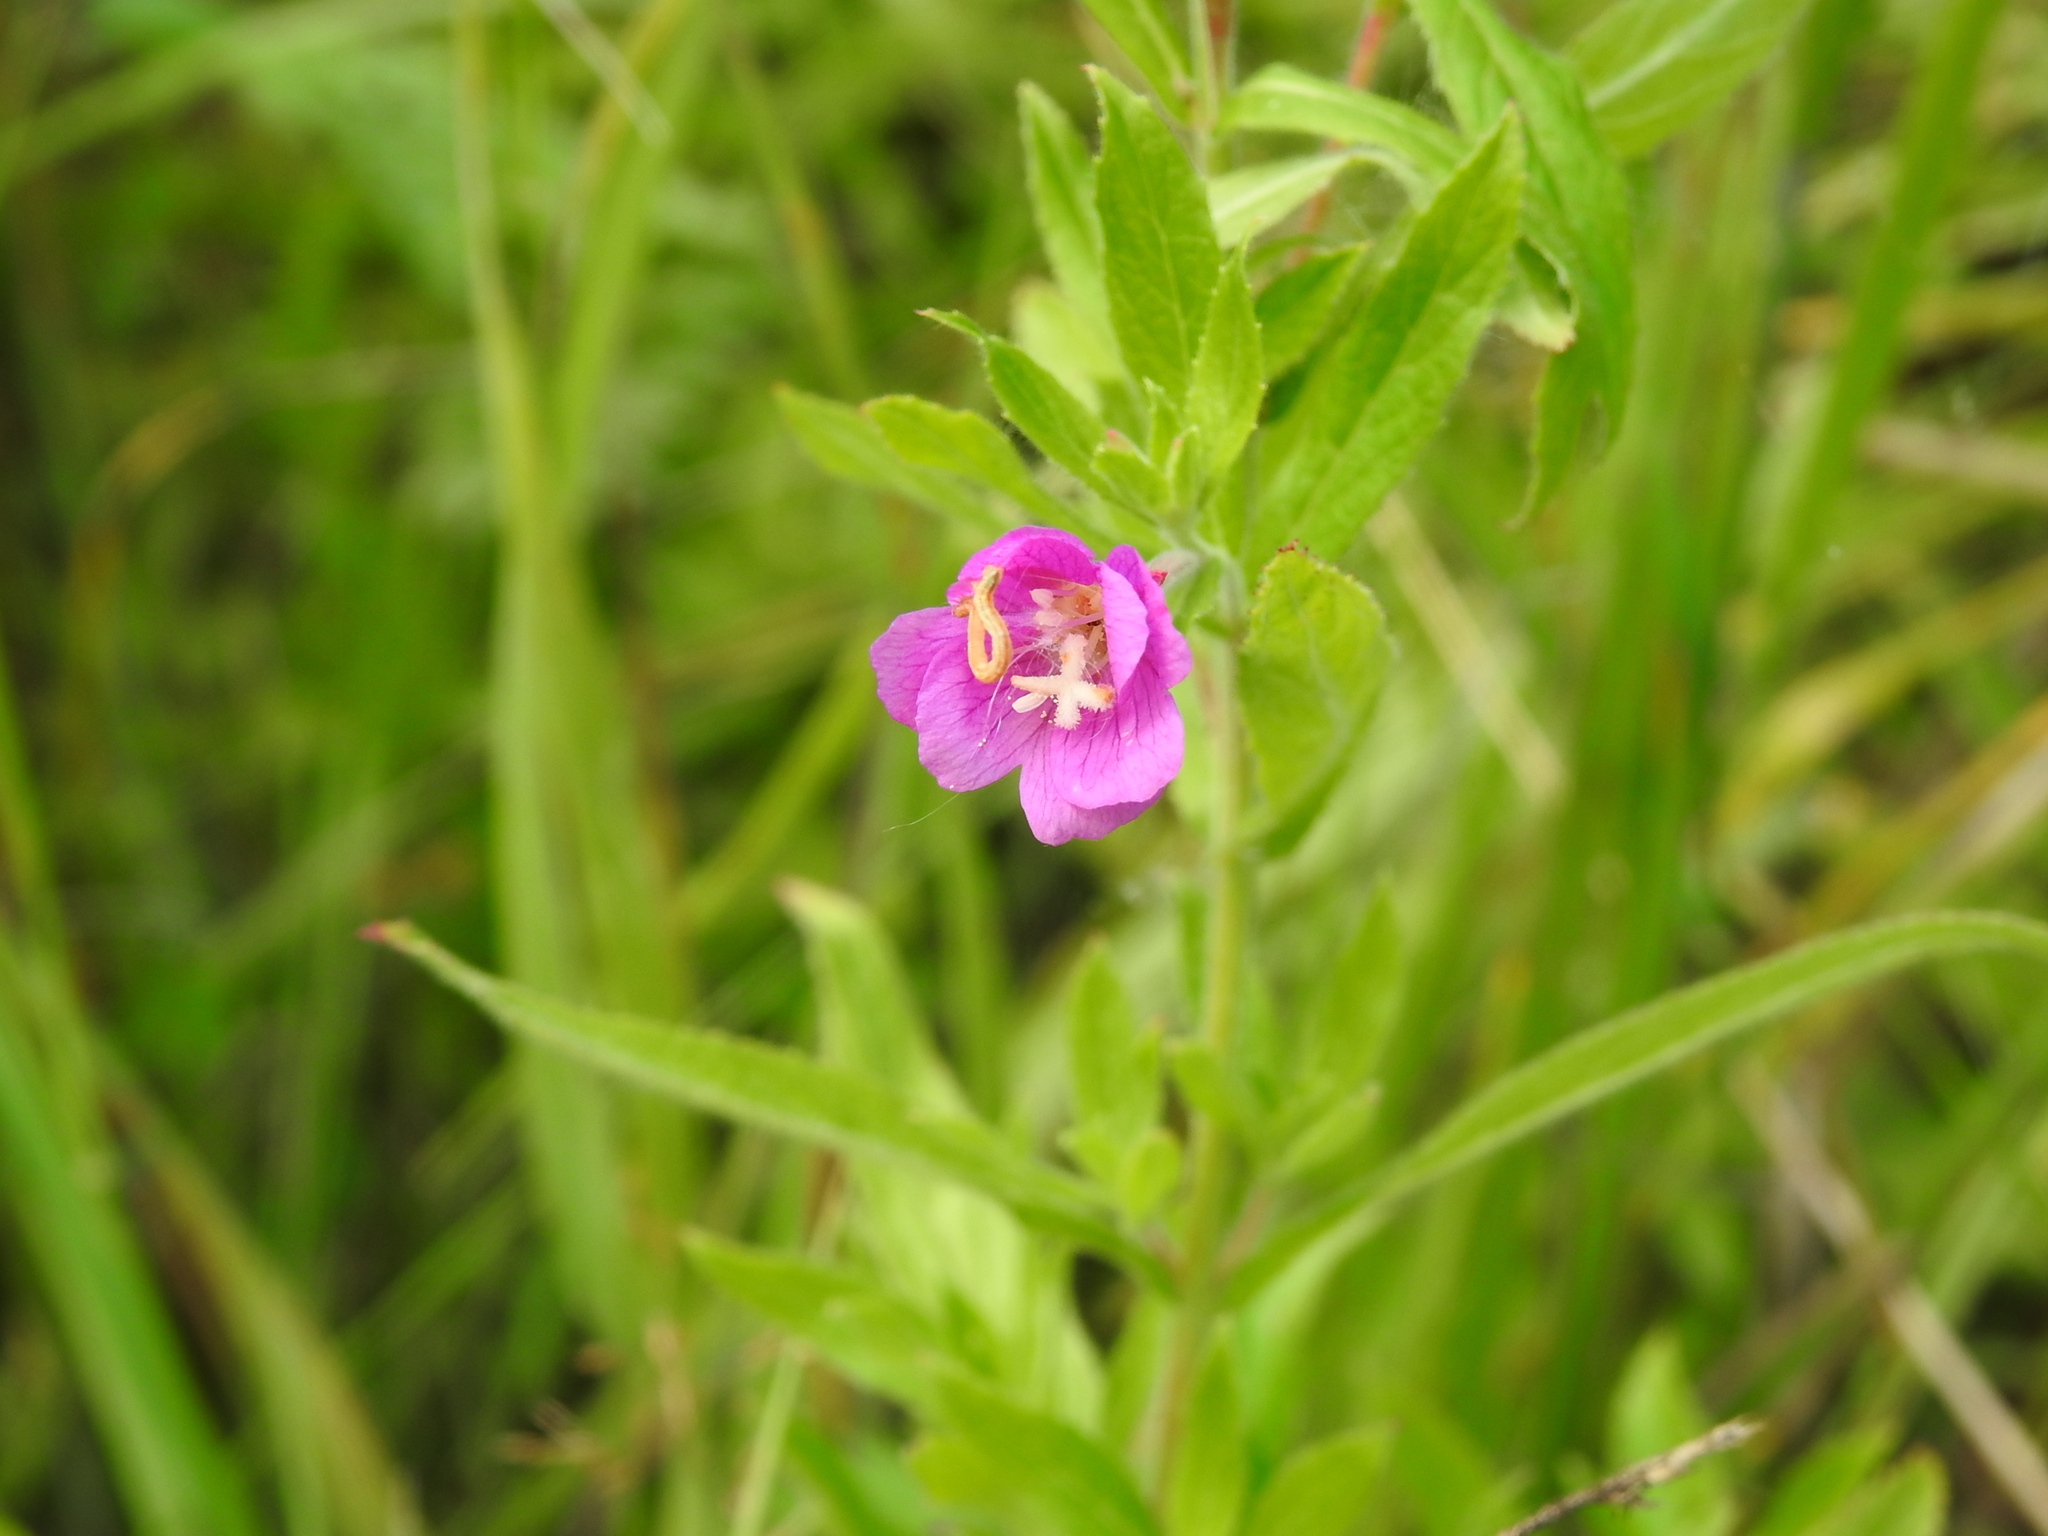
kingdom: Plantae
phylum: Tracheophyta
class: Magnoliopsida
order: Myrtales
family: Onagraceae
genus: Epilobium
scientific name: Epilobium hirsutum
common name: Great willowherb
